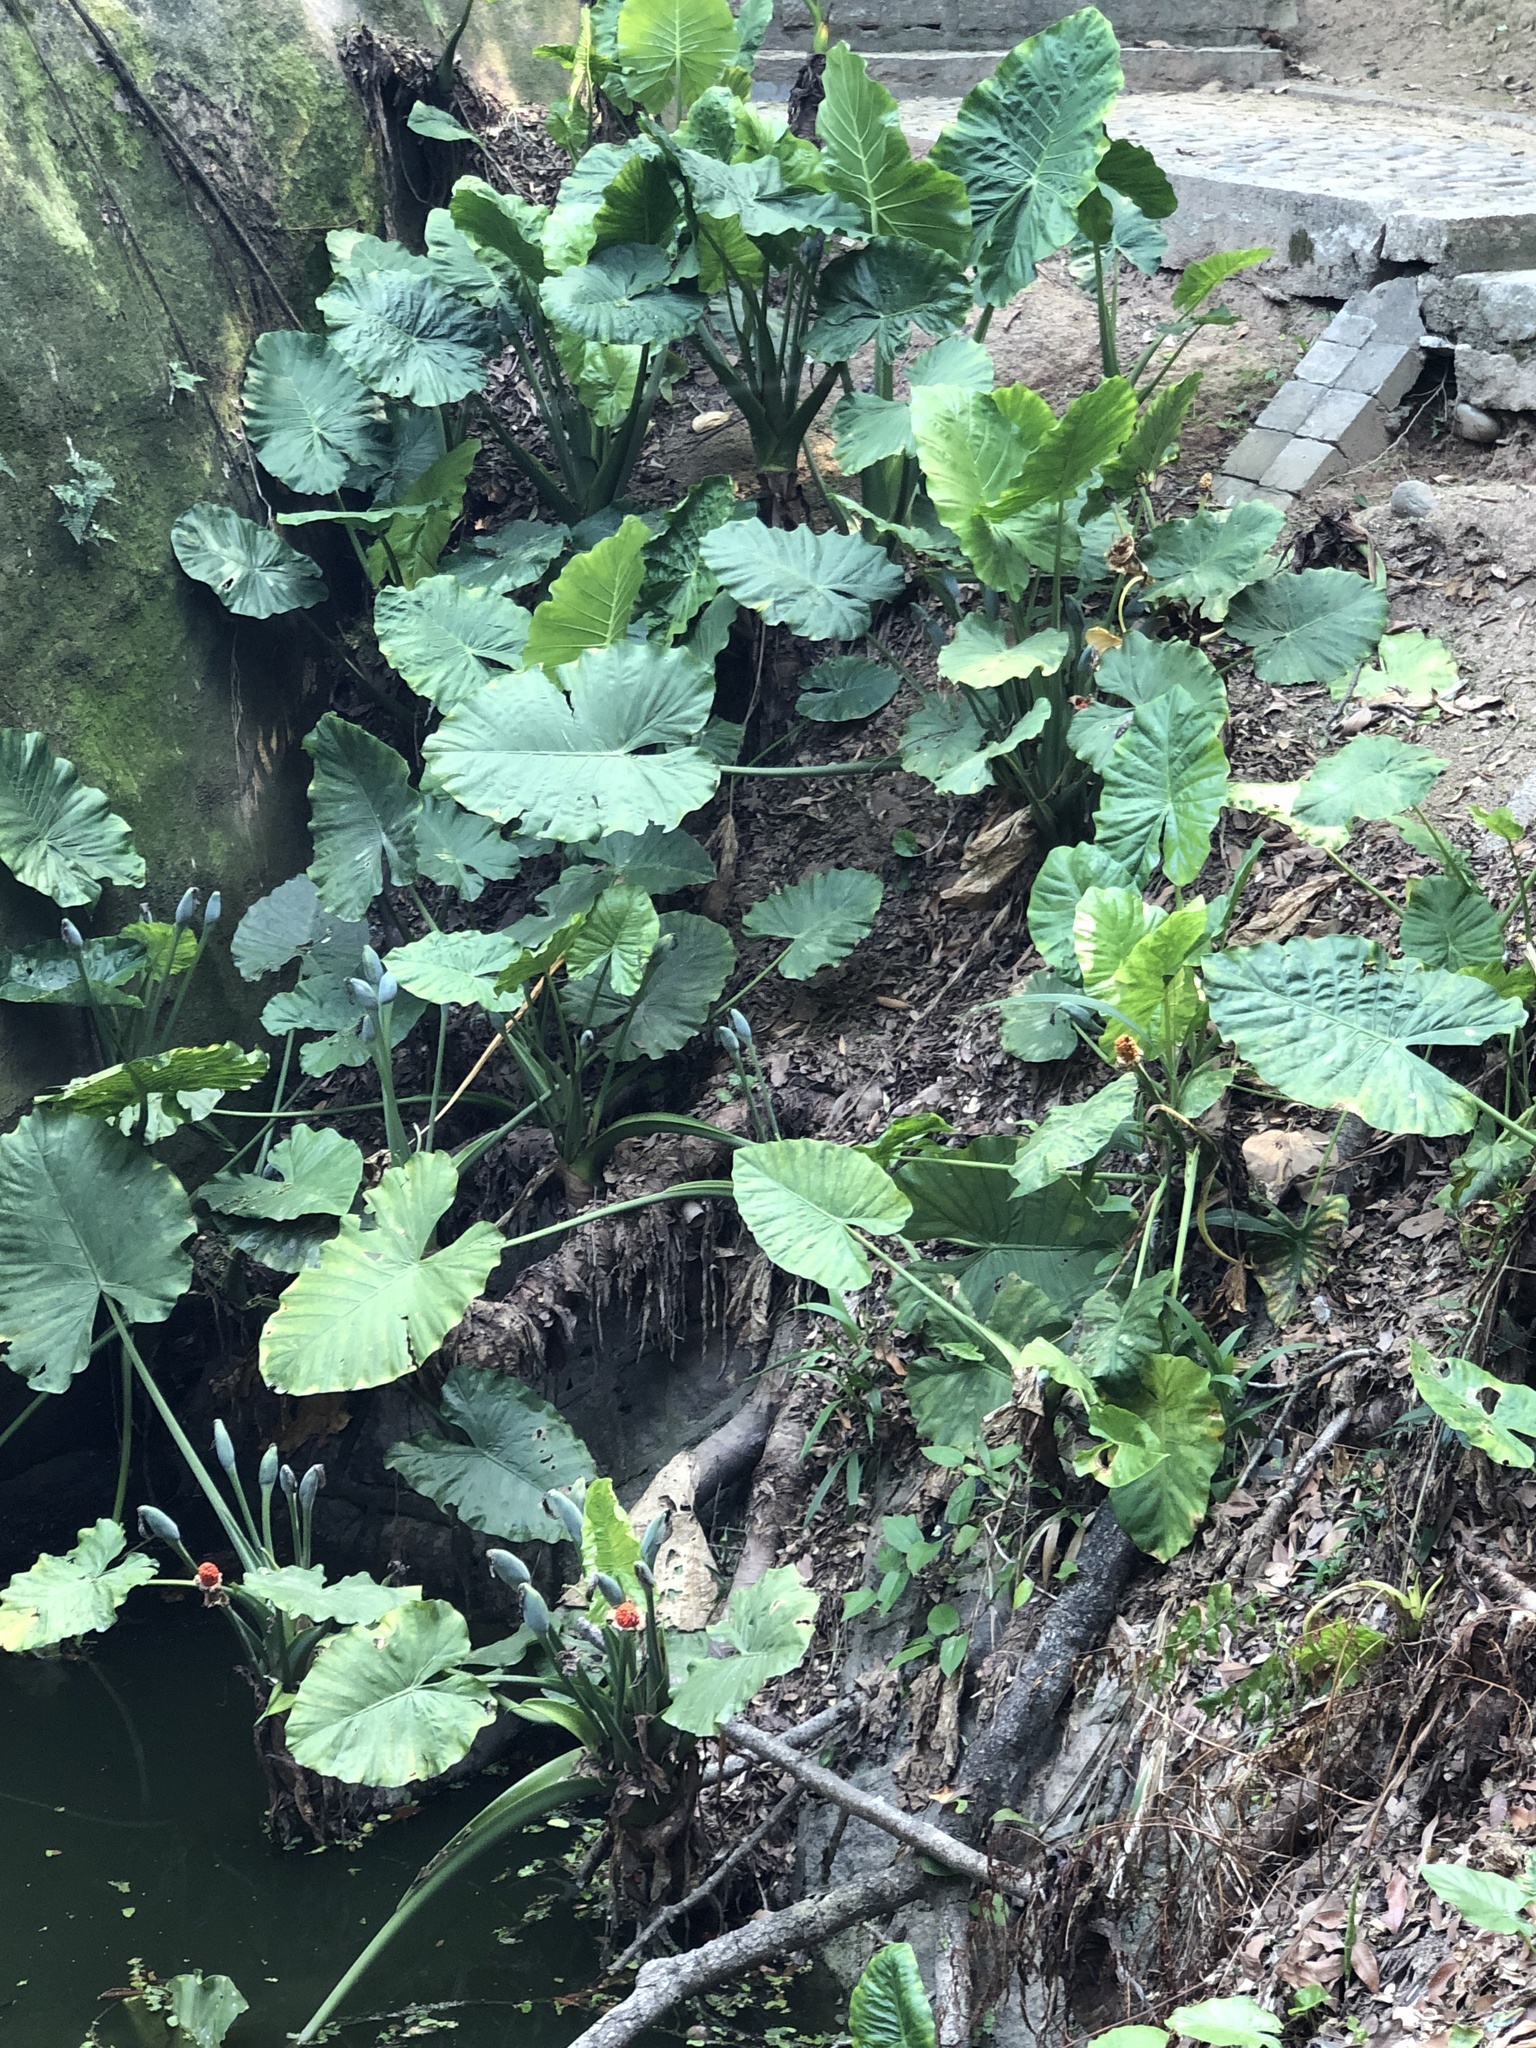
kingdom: Plantae
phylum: Tracheophyta
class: Liliopsida
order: Alismatales
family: Araceae
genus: Alocasia
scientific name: Alocasia odora
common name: Asian taro
